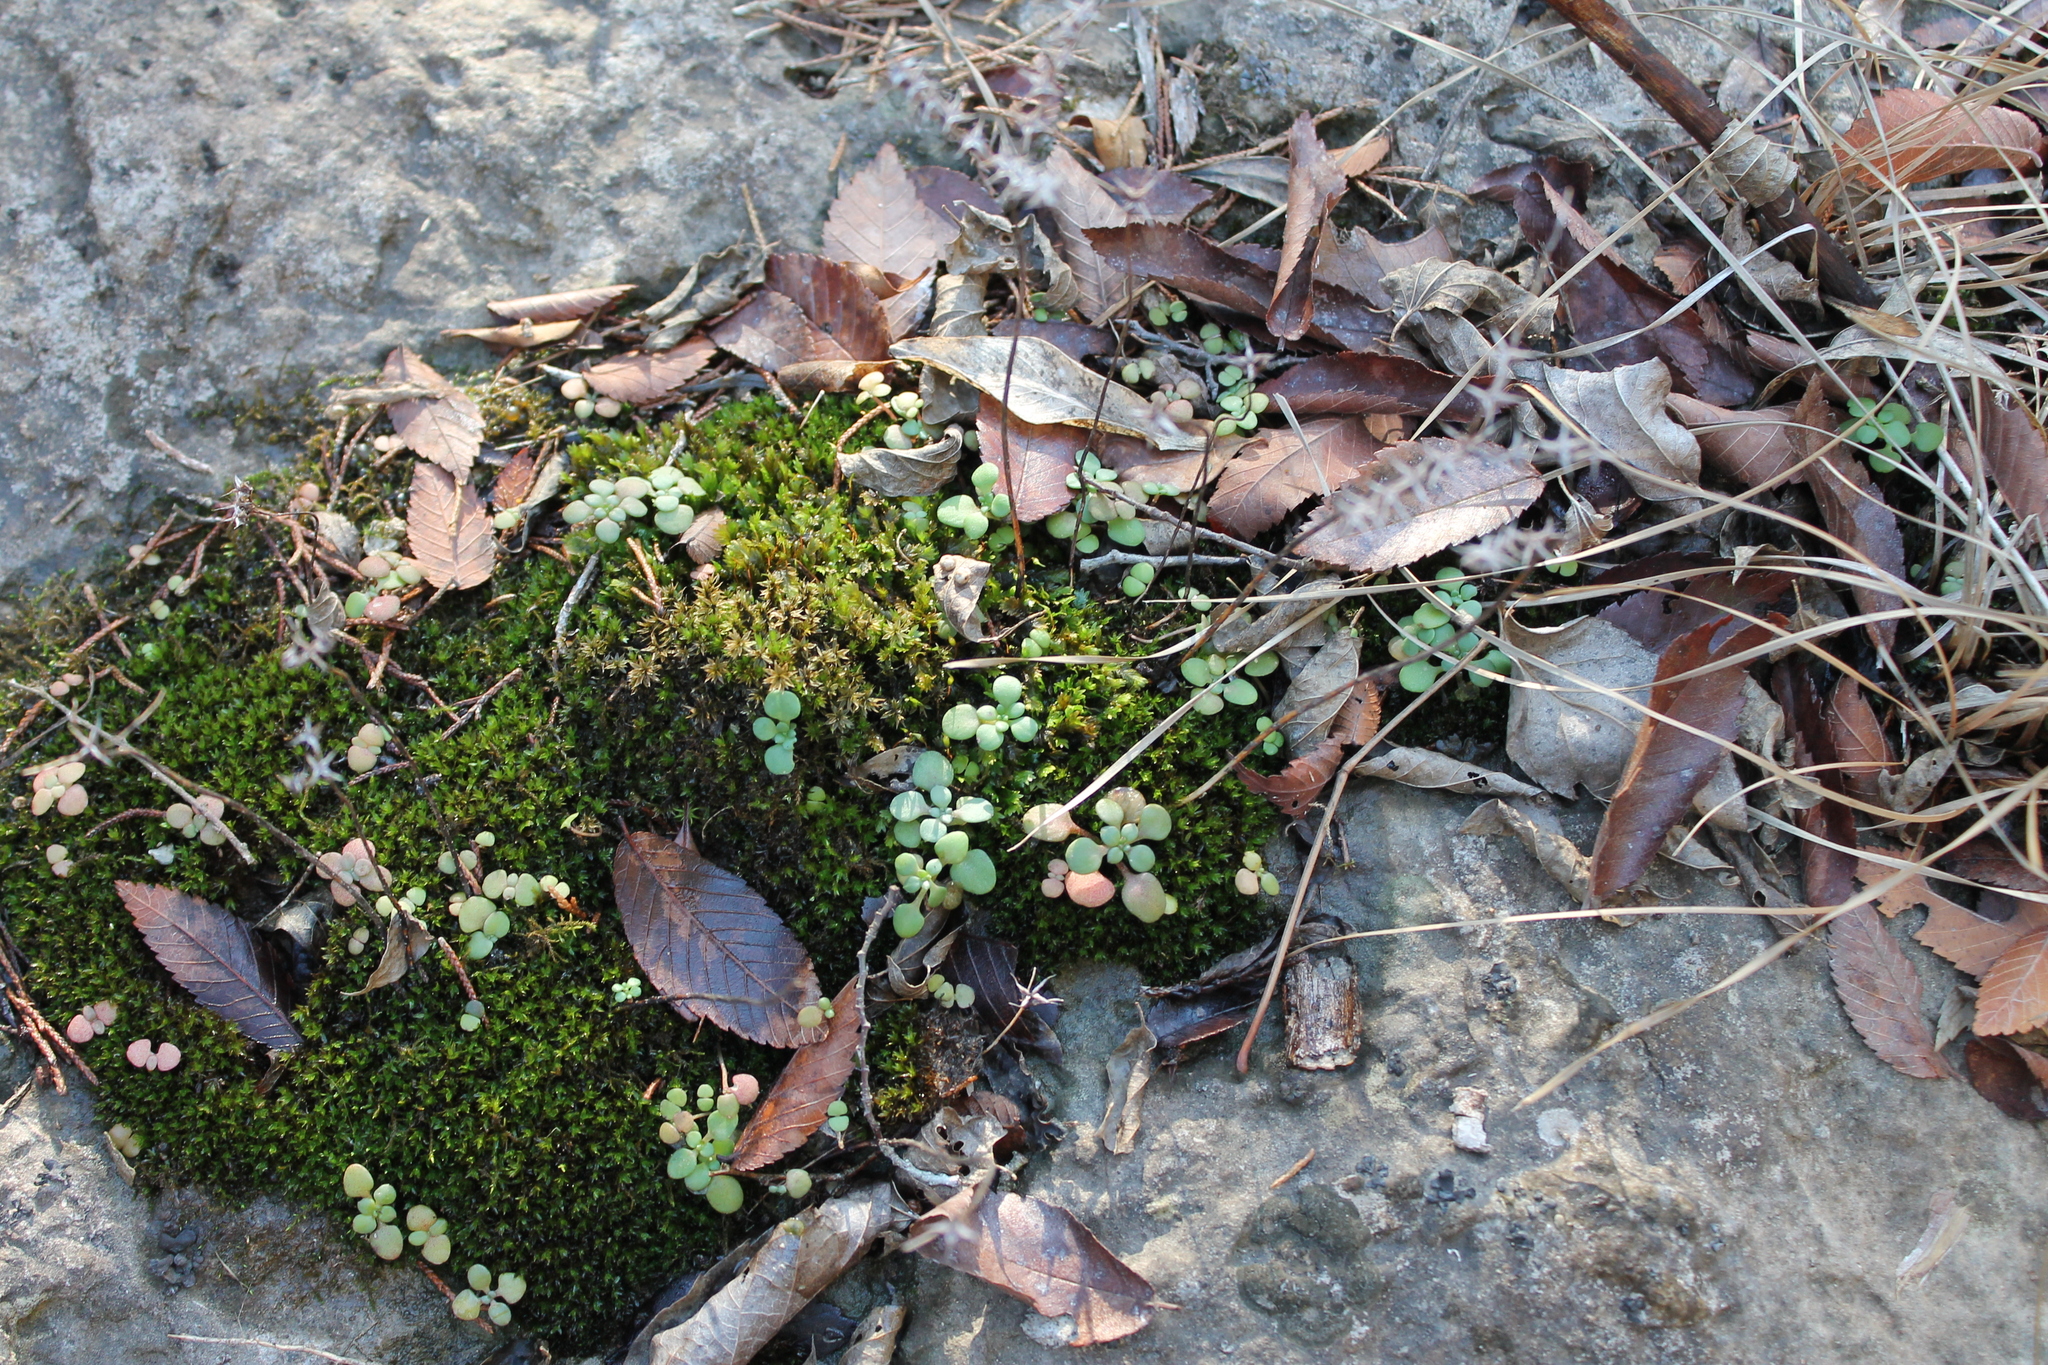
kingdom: Plantae
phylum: Tracheophyta
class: Magnoliopsida
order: Saxifragales
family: Crassulaceae
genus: Sedum
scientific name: Sedum pulchellum
